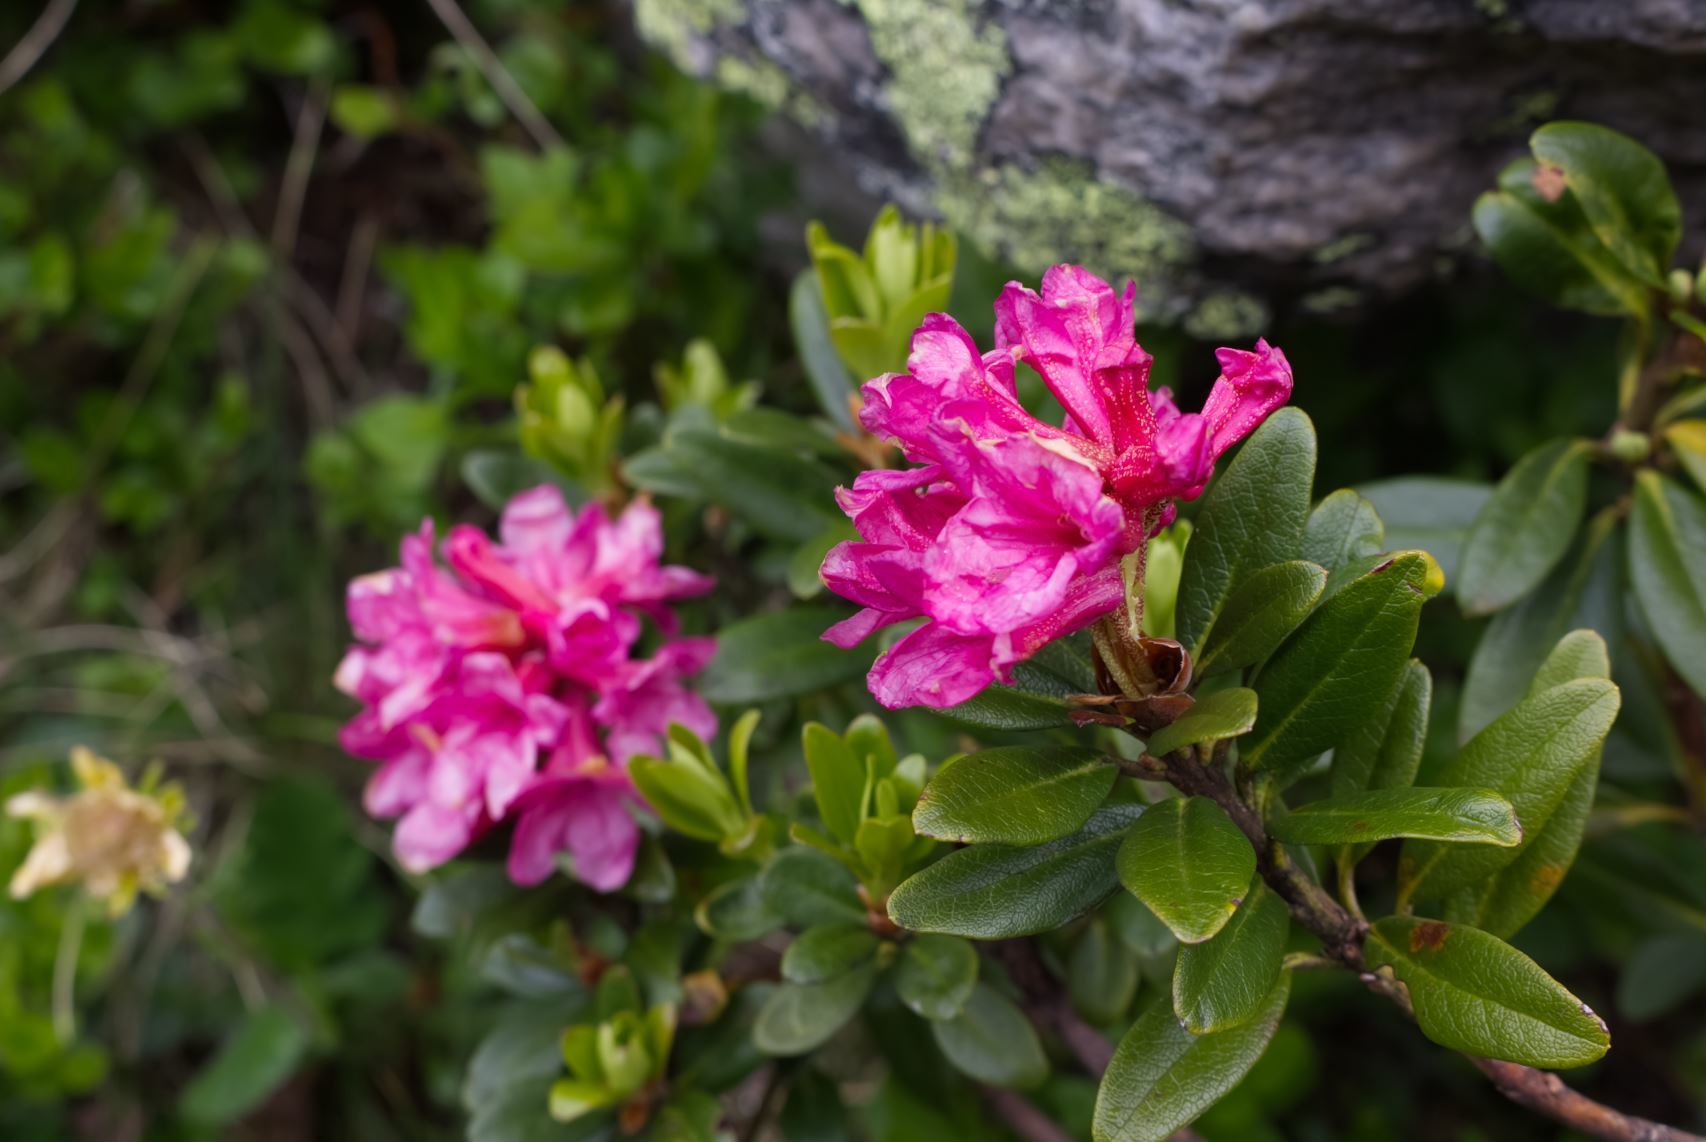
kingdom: Plantae
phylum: Tracheophyta
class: Magnoliopsida
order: Ericales
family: Ericaceae
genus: Rhododendron
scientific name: Rhododendron ferrugineum
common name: Alpenrose
